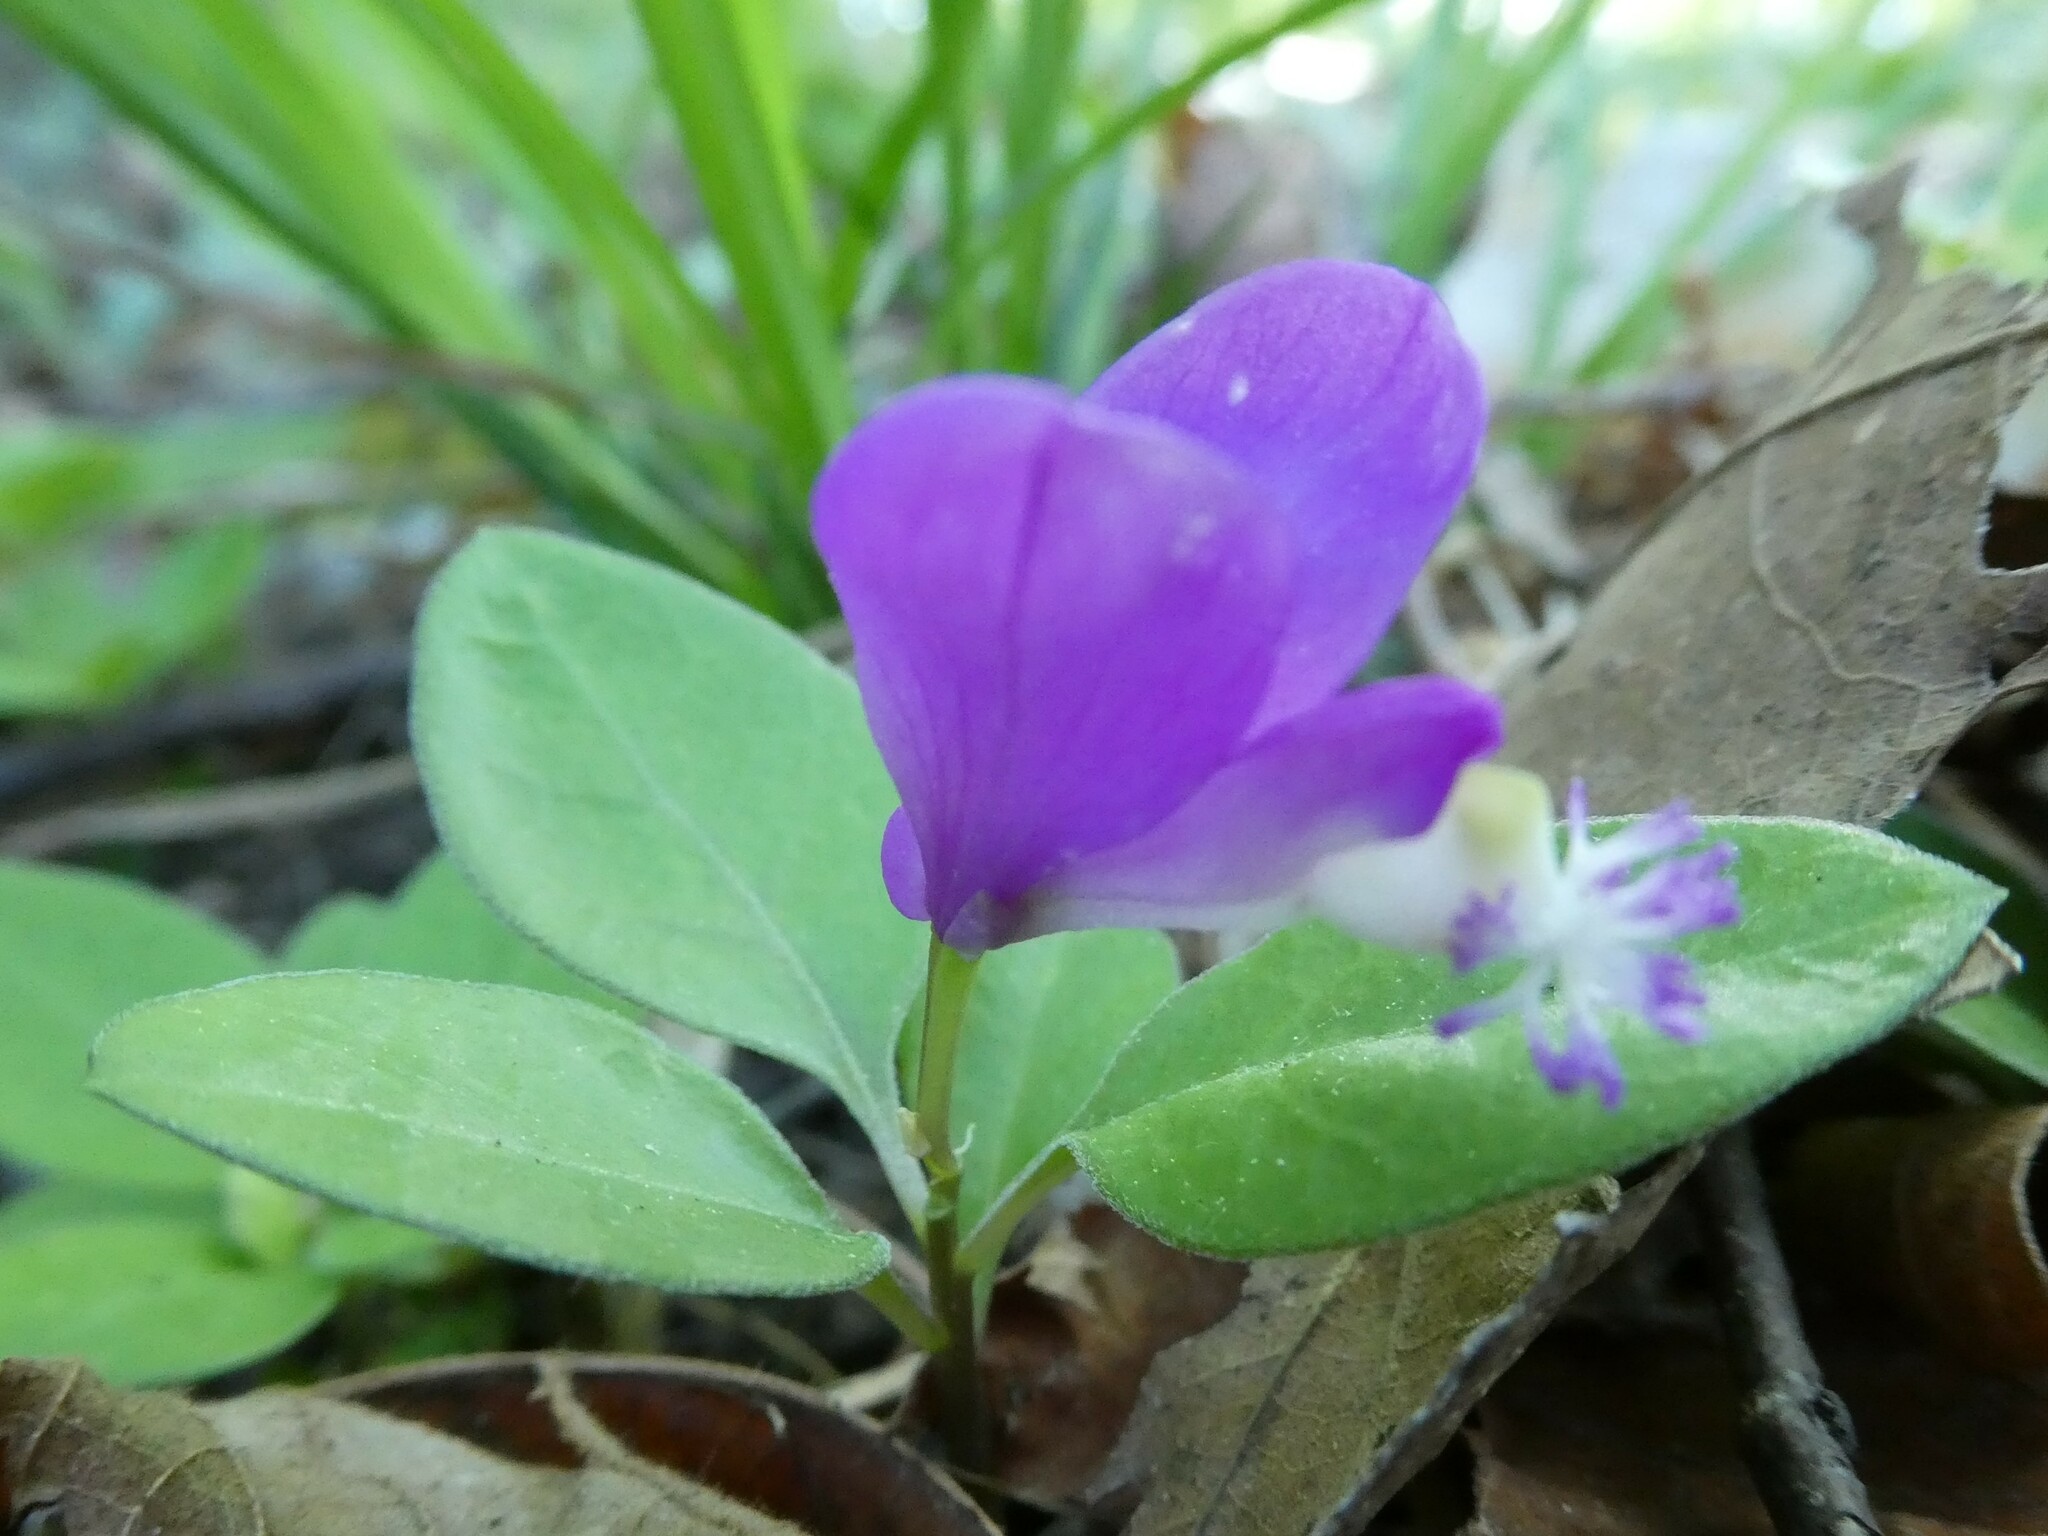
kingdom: Plantae
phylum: Tracheophyta
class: Magnoliopsida
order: Fabales
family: Polygalaceae
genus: Polygaloides
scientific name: Polygaloides paucifolia
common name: Bird-on-the-wing
